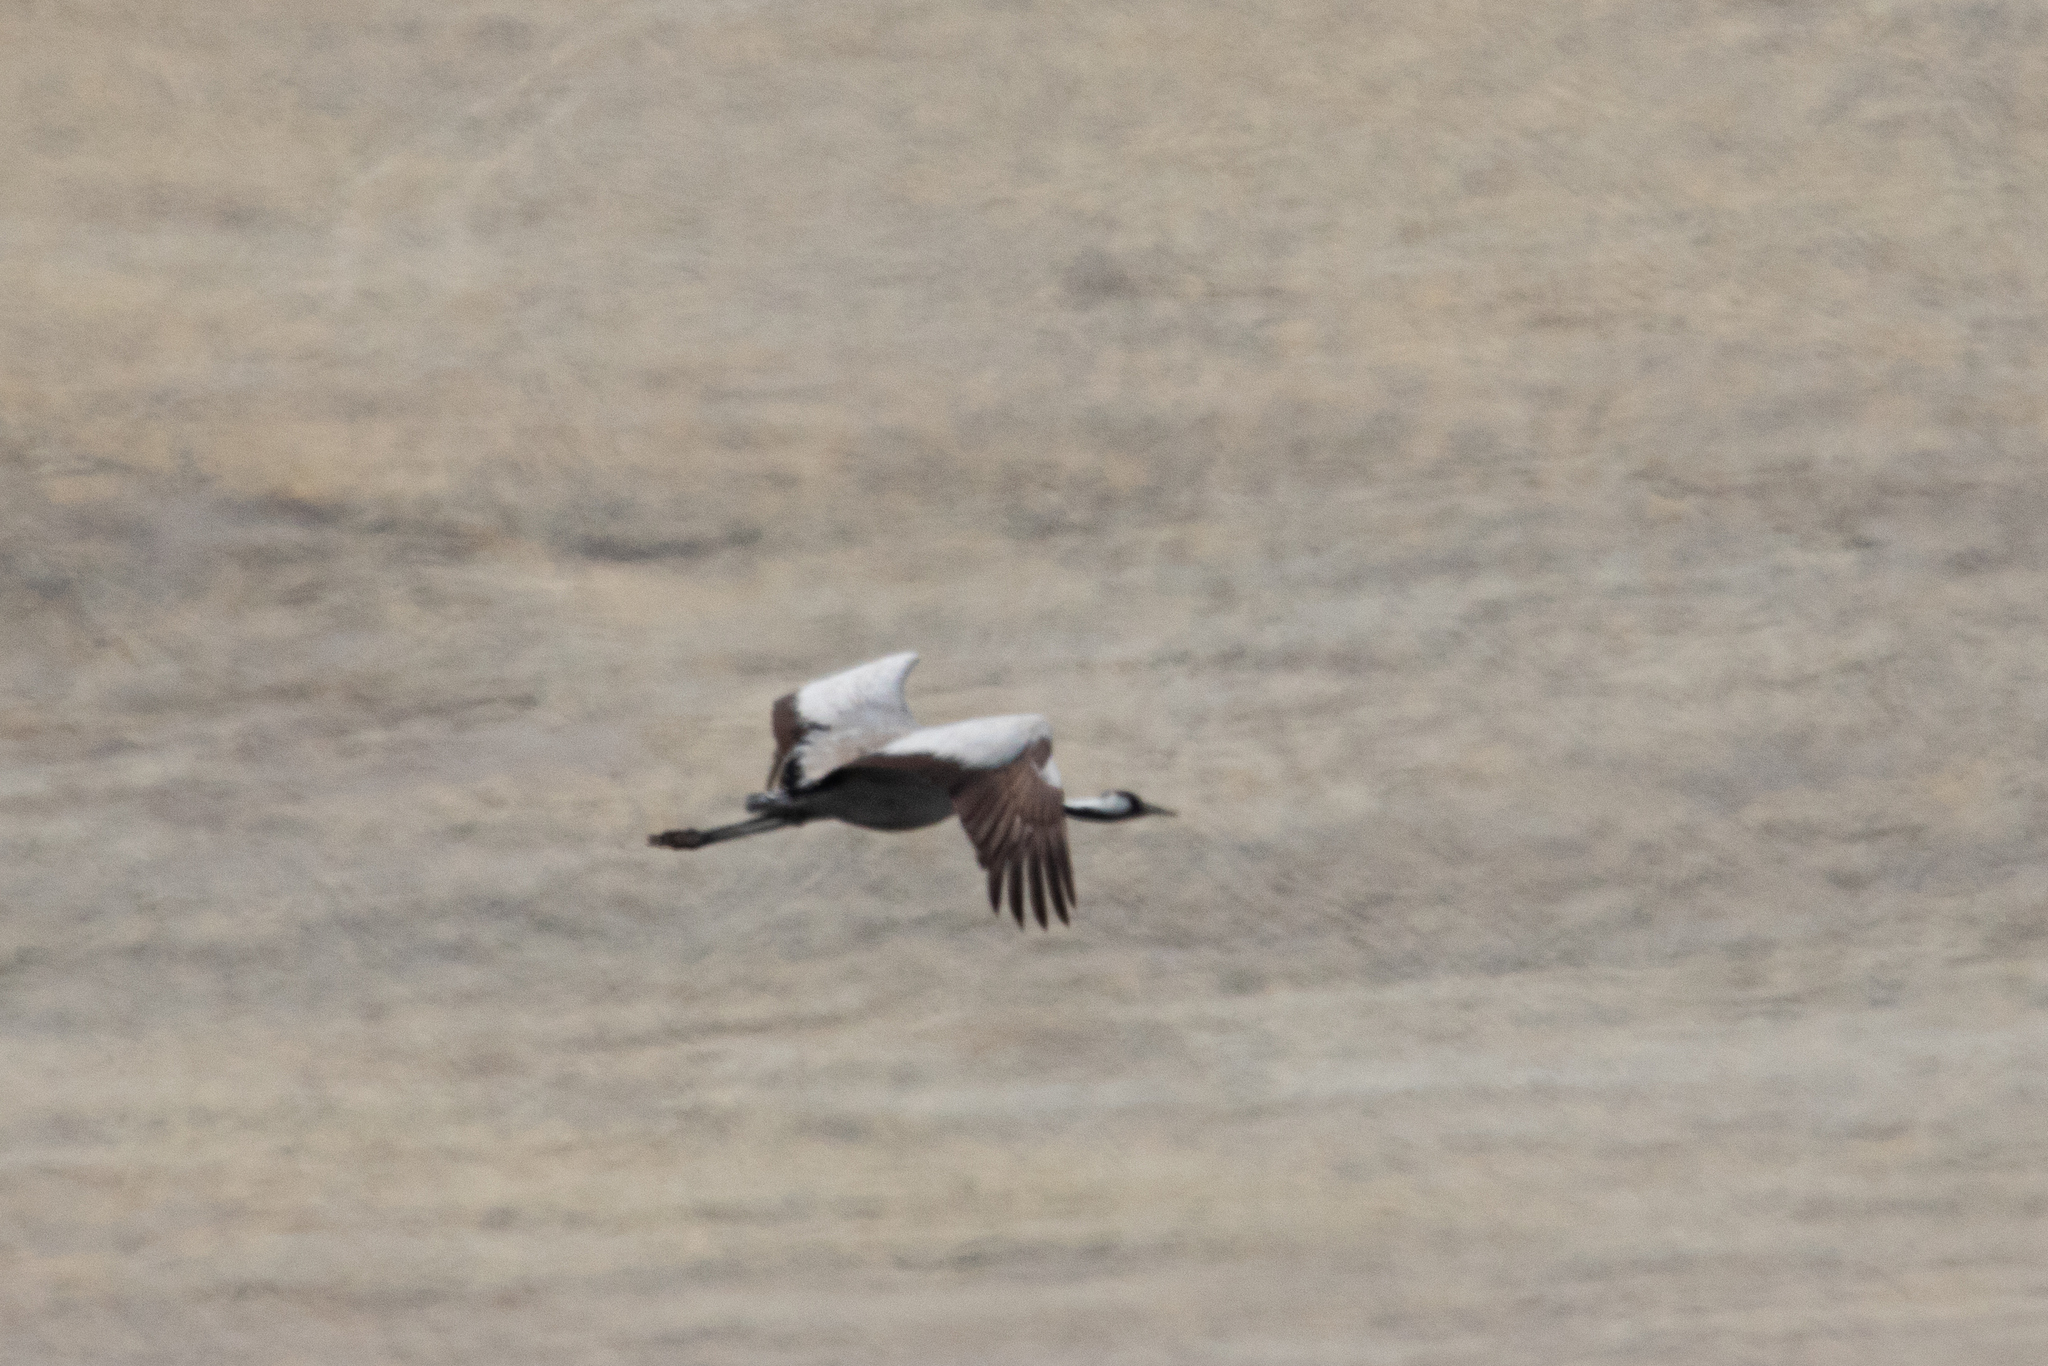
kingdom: Animalia
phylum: Chordata
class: Aves
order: Gruiformes
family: Gruidae
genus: Grus
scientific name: Grus grus
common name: Common crane
